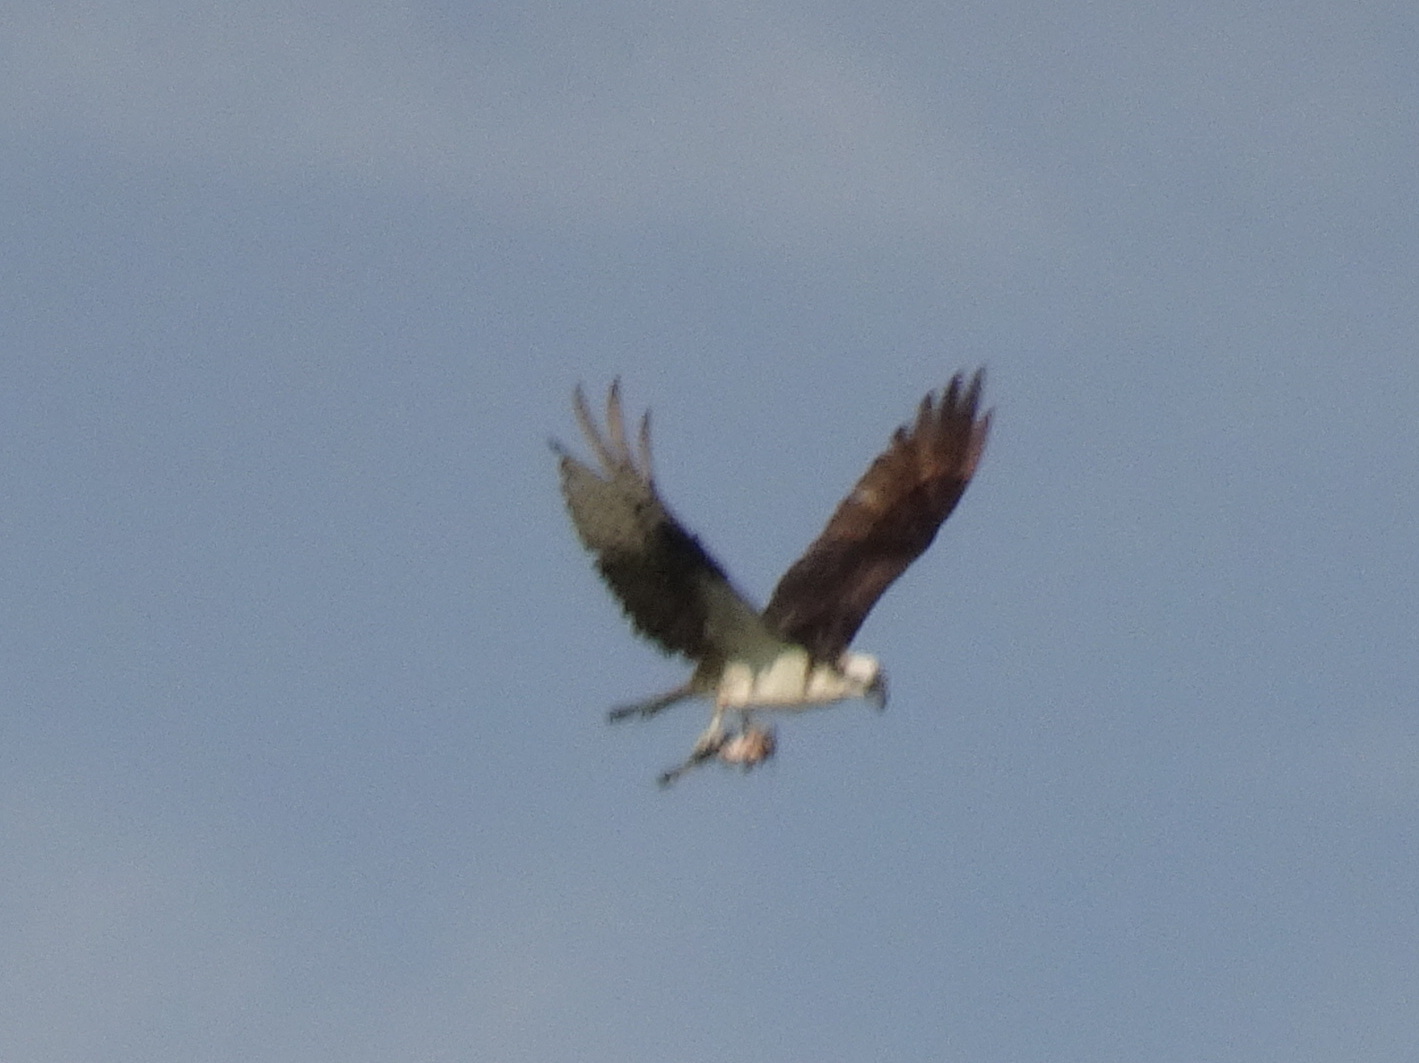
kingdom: Animalia
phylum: Chordata
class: Aves
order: Accipitriformes
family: Pandionidae
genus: Pandion
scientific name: Pandion haliaetus
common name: Osprey
